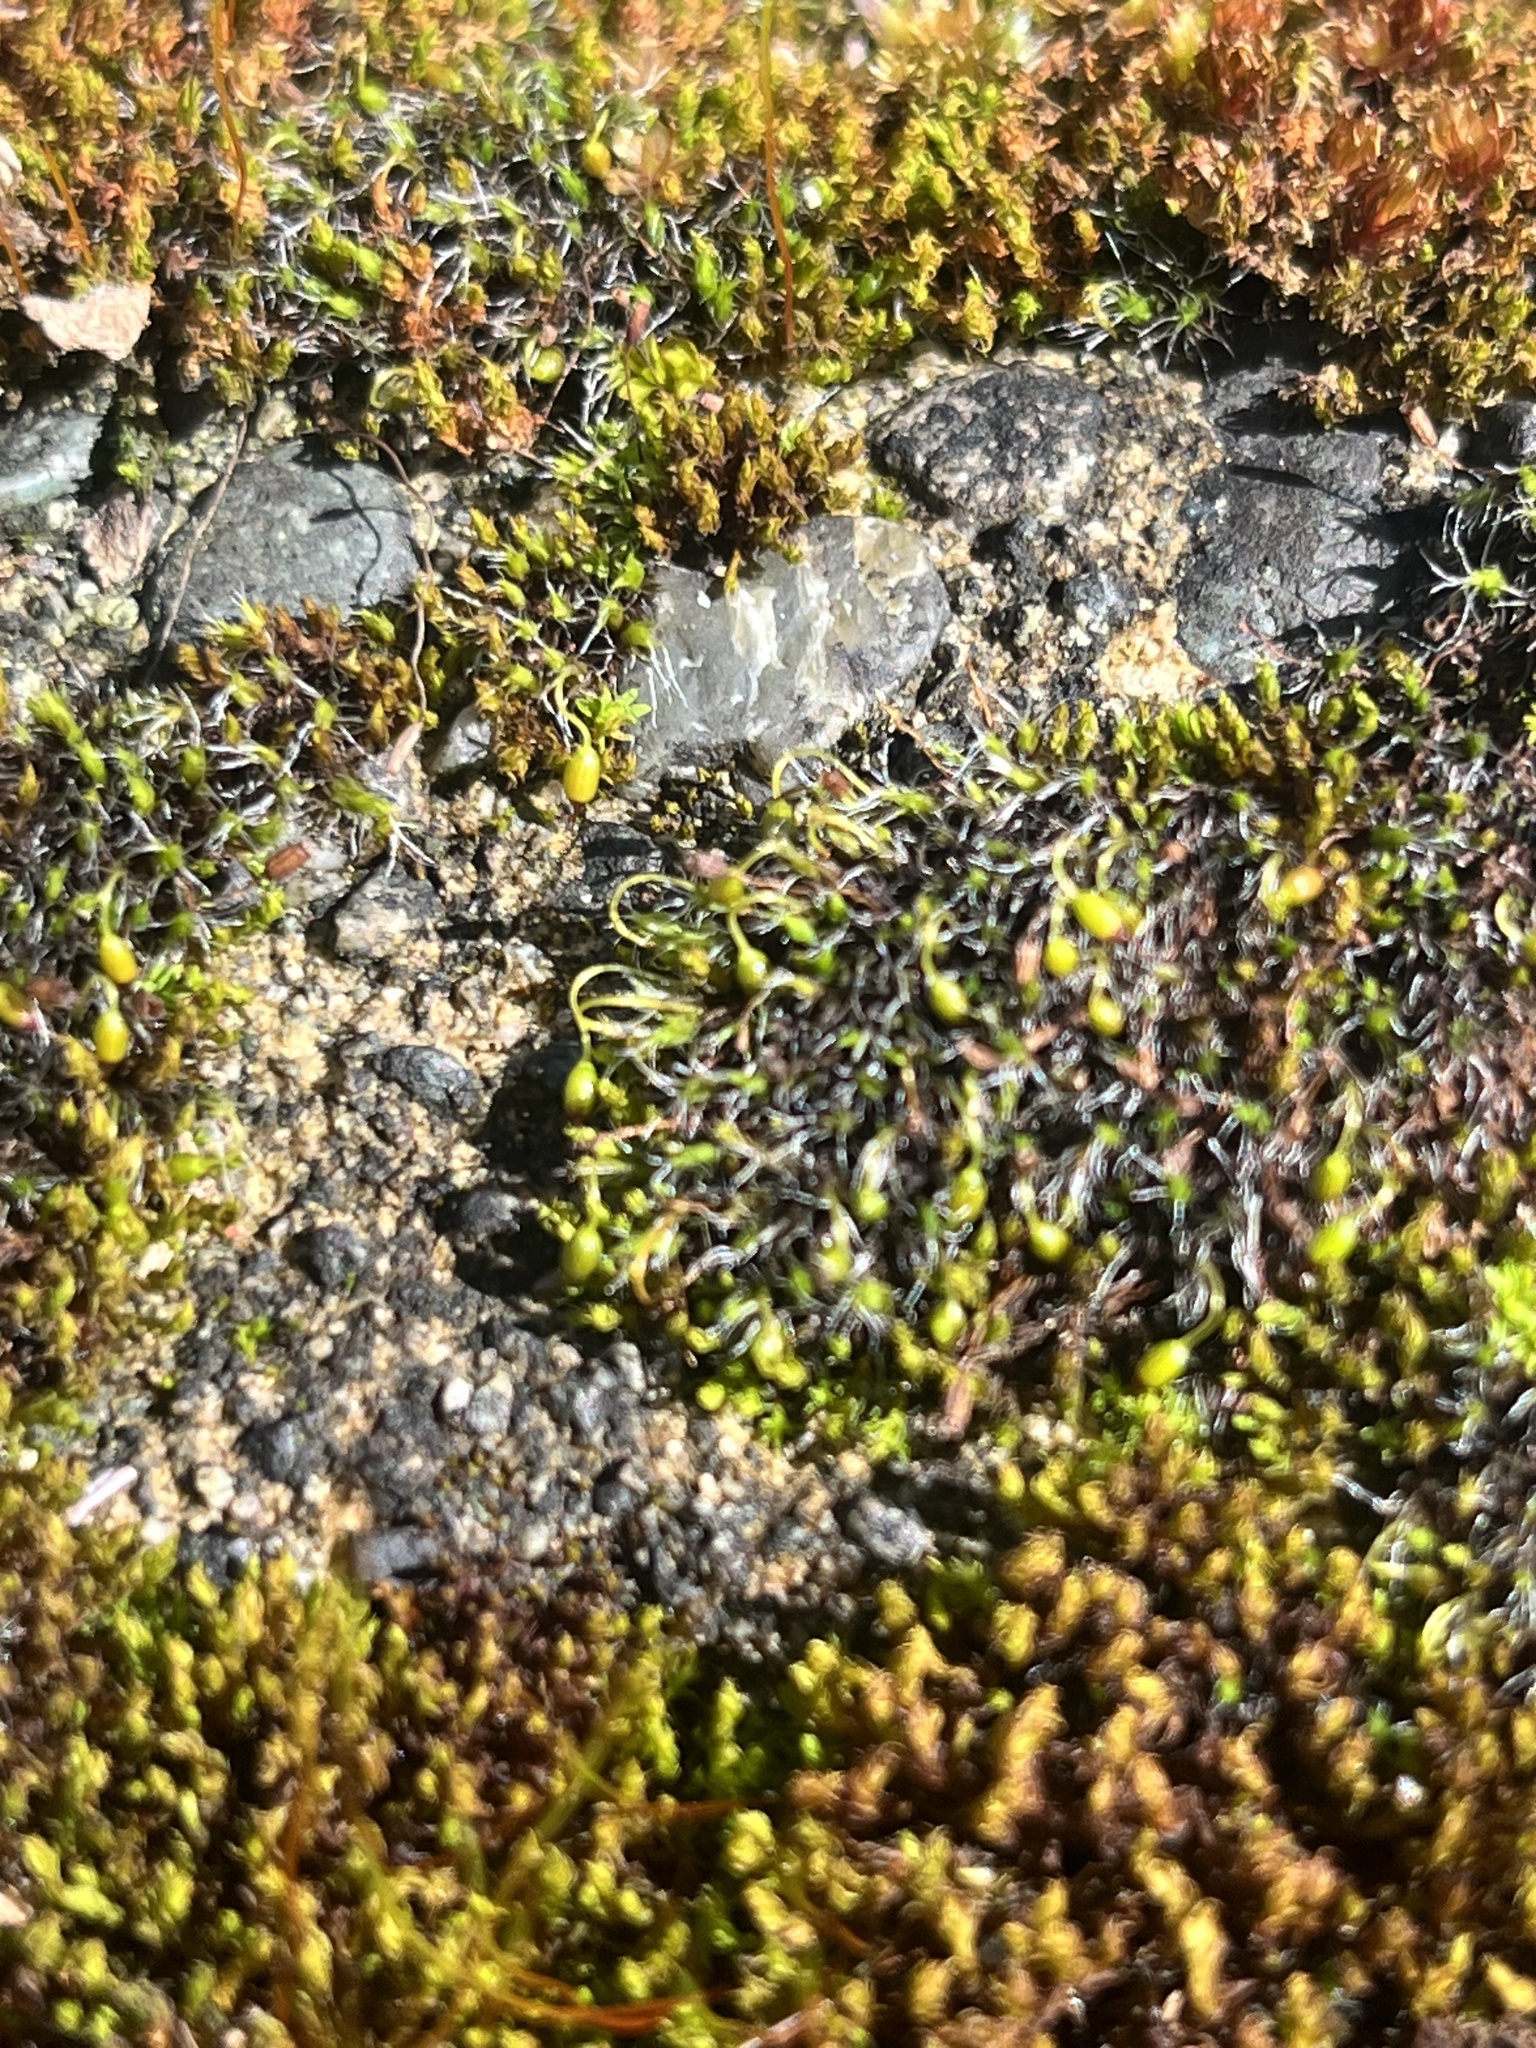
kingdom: Plantae
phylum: Bryophyta
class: Bryopsida
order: Grimmiales
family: Grimmiaceae
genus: Grimmia
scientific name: Grimmia pulvinata
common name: Grey-cushioned grimmia
